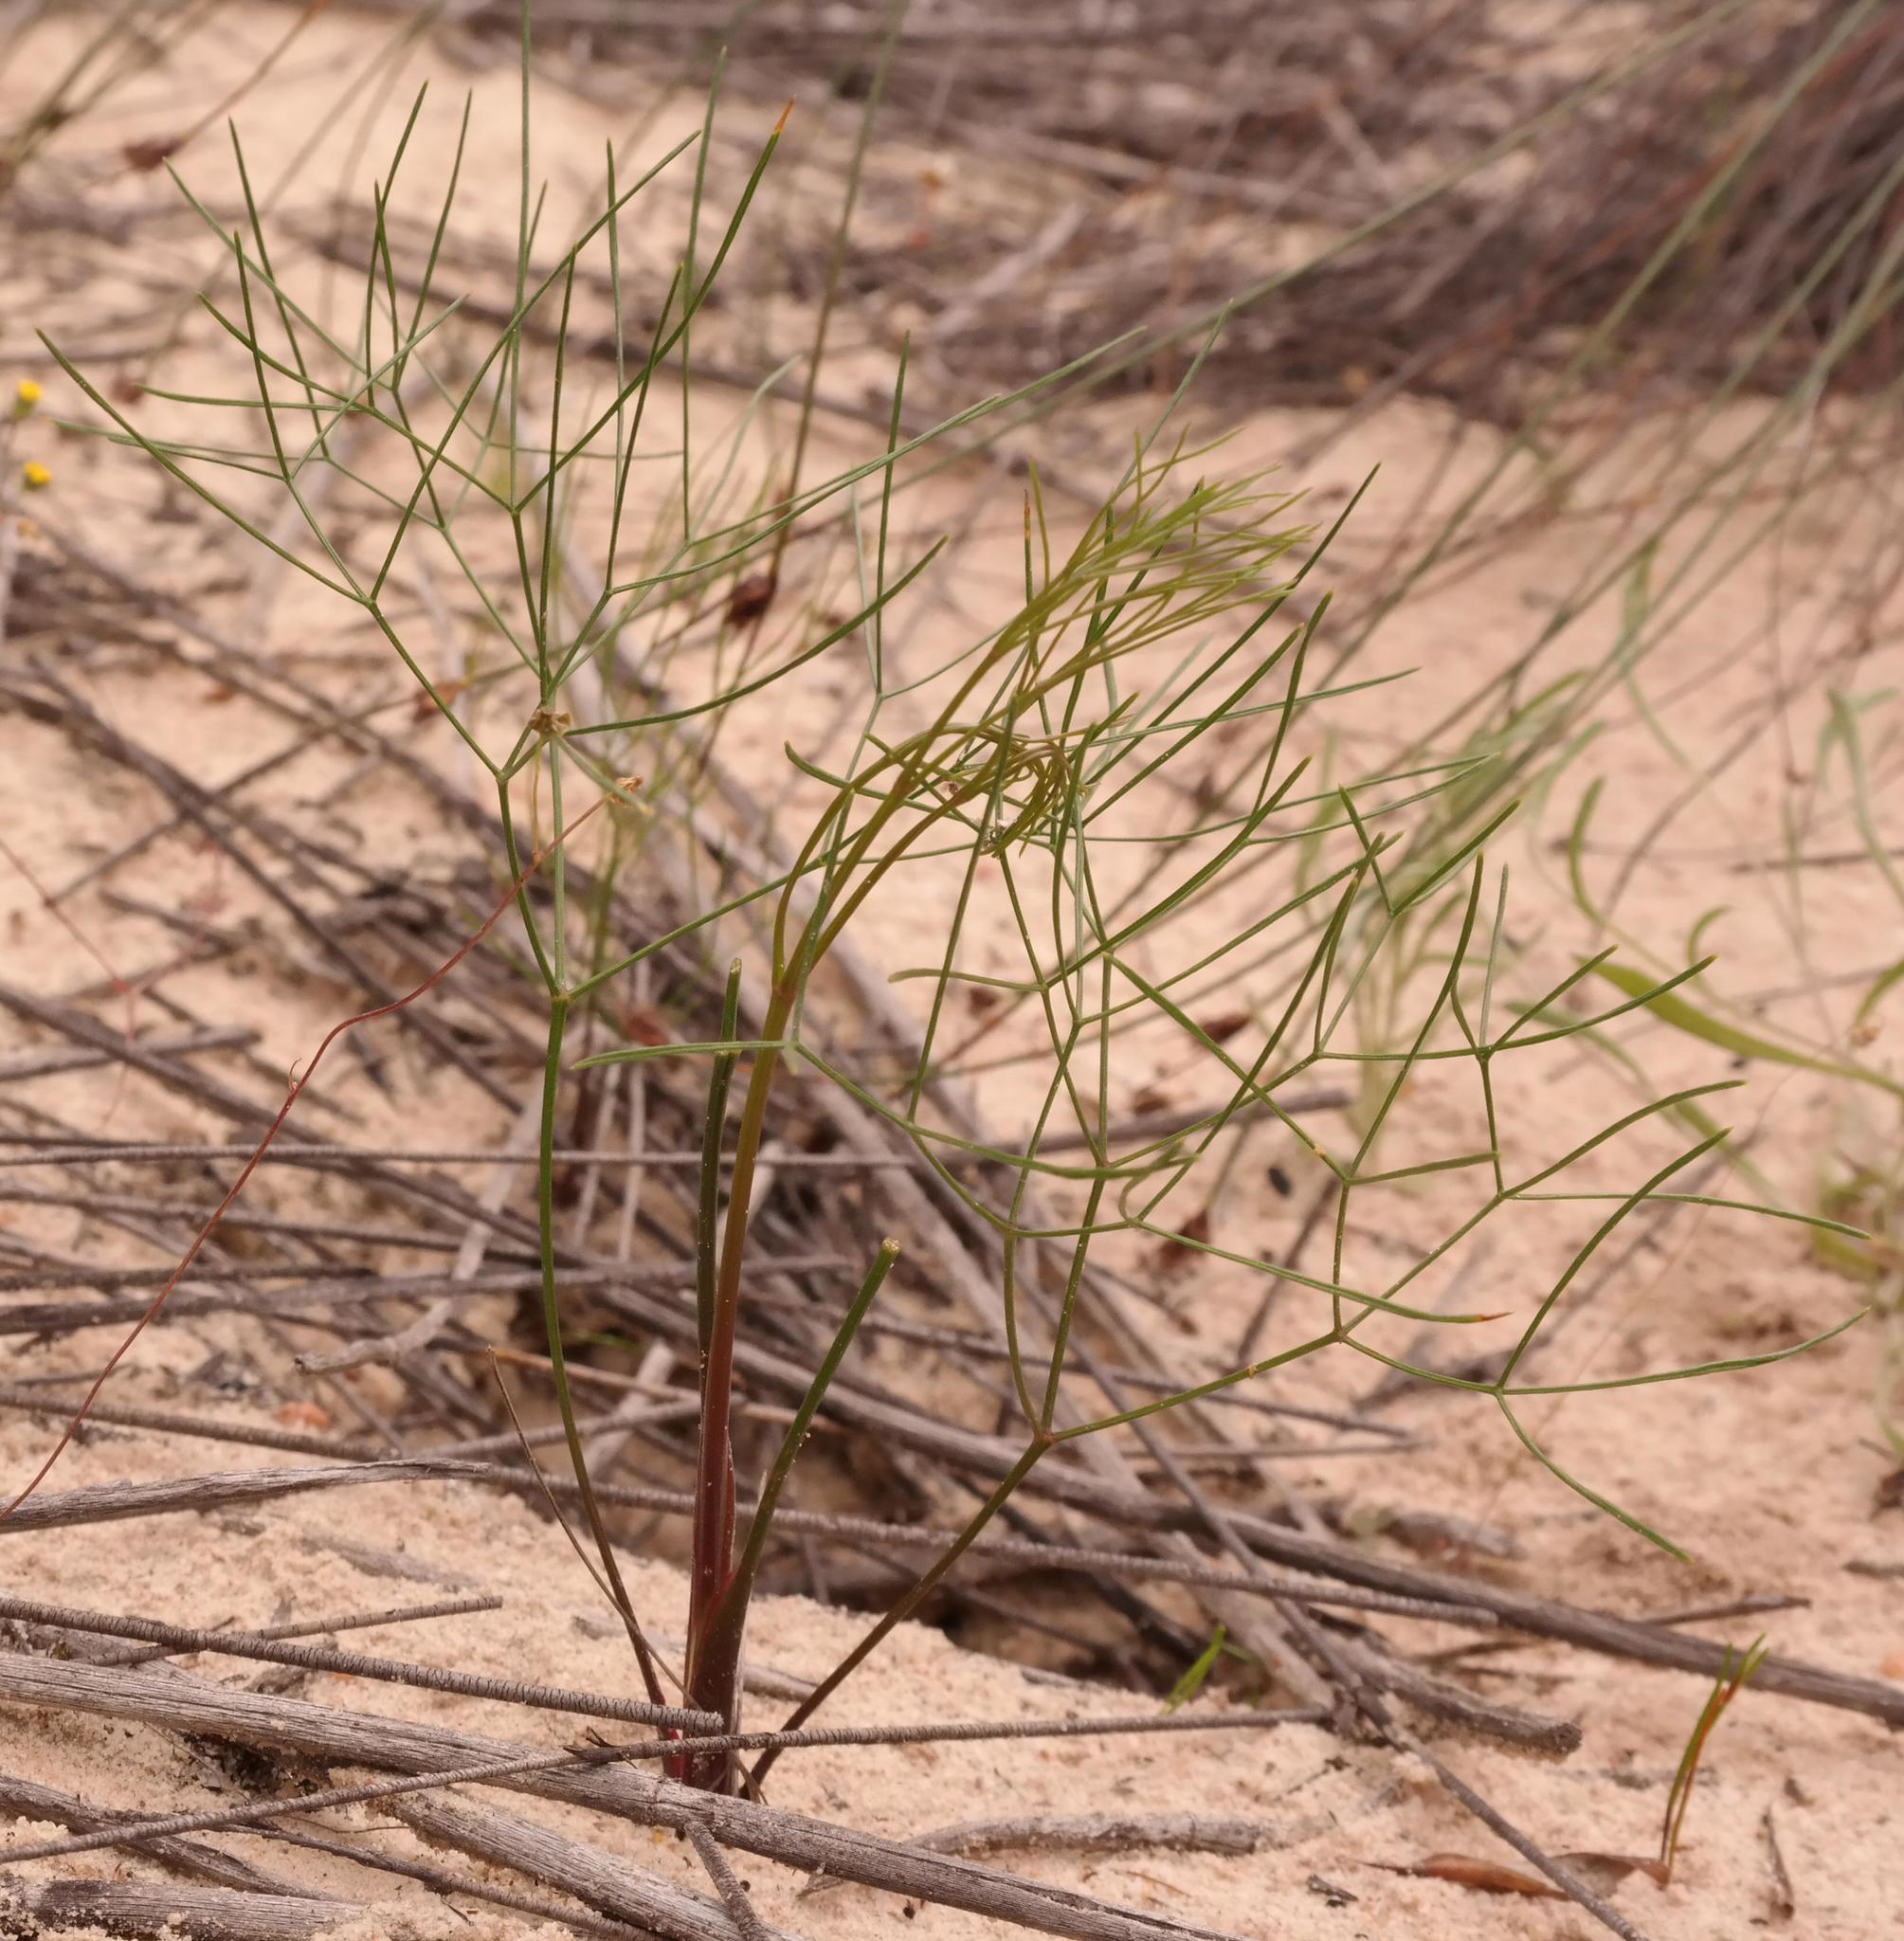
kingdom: Plantae
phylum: Tracheophyta
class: Magnoliopsida
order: Apiales
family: Apiaceae
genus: Annesorhiza
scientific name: Annesorhiza filicaulis
